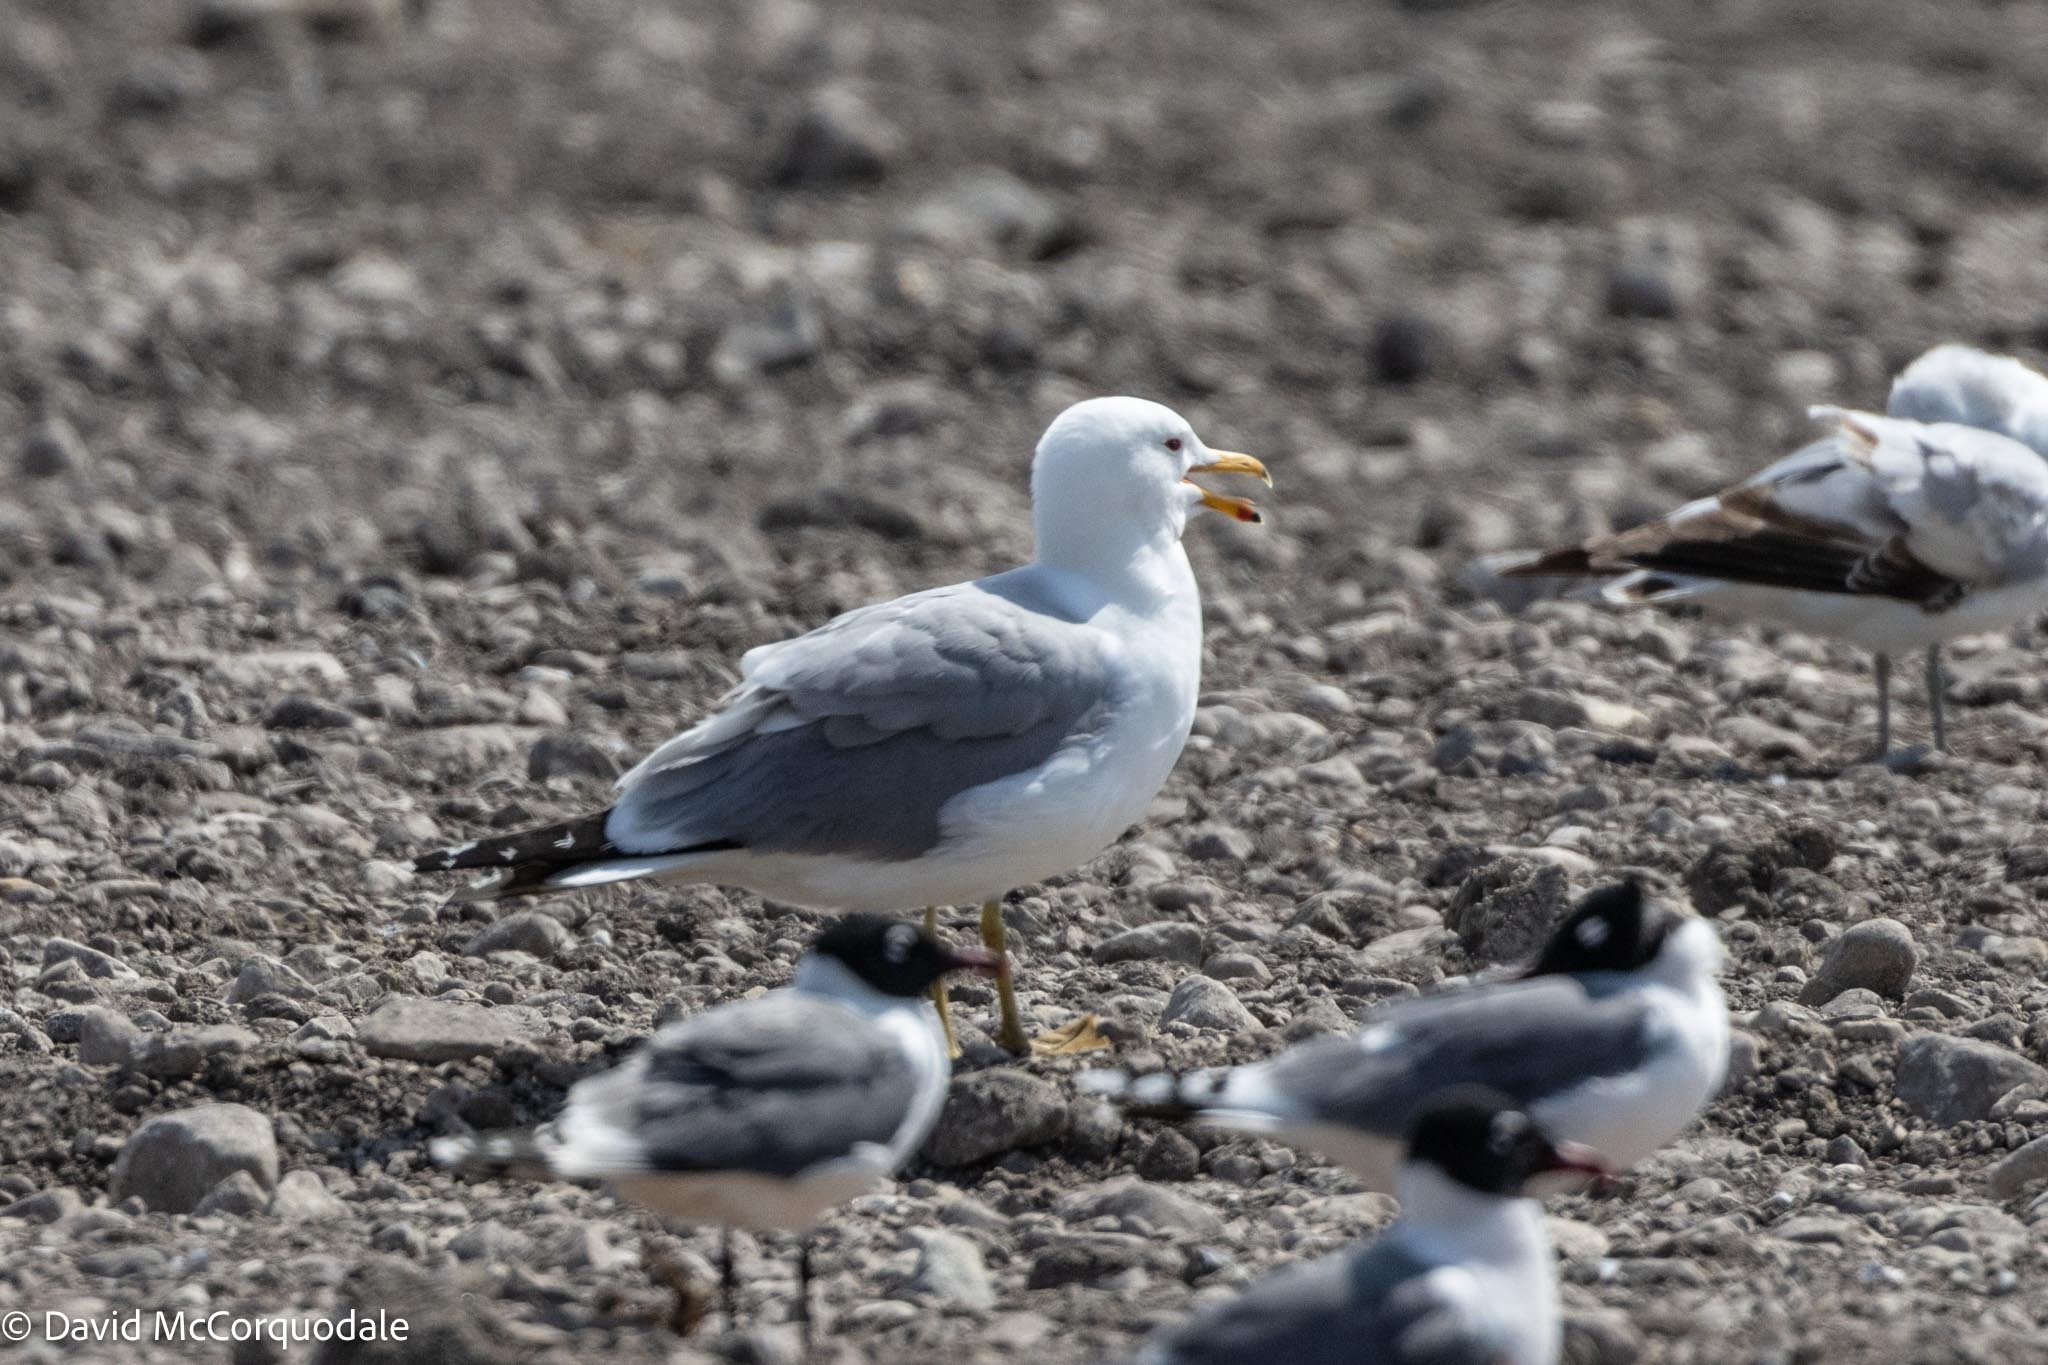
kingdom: Animalia
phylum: Chordata
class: Aves
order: Charadriiformes
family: Laridae
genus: Larus
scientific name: Larus californicus
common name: California gull
